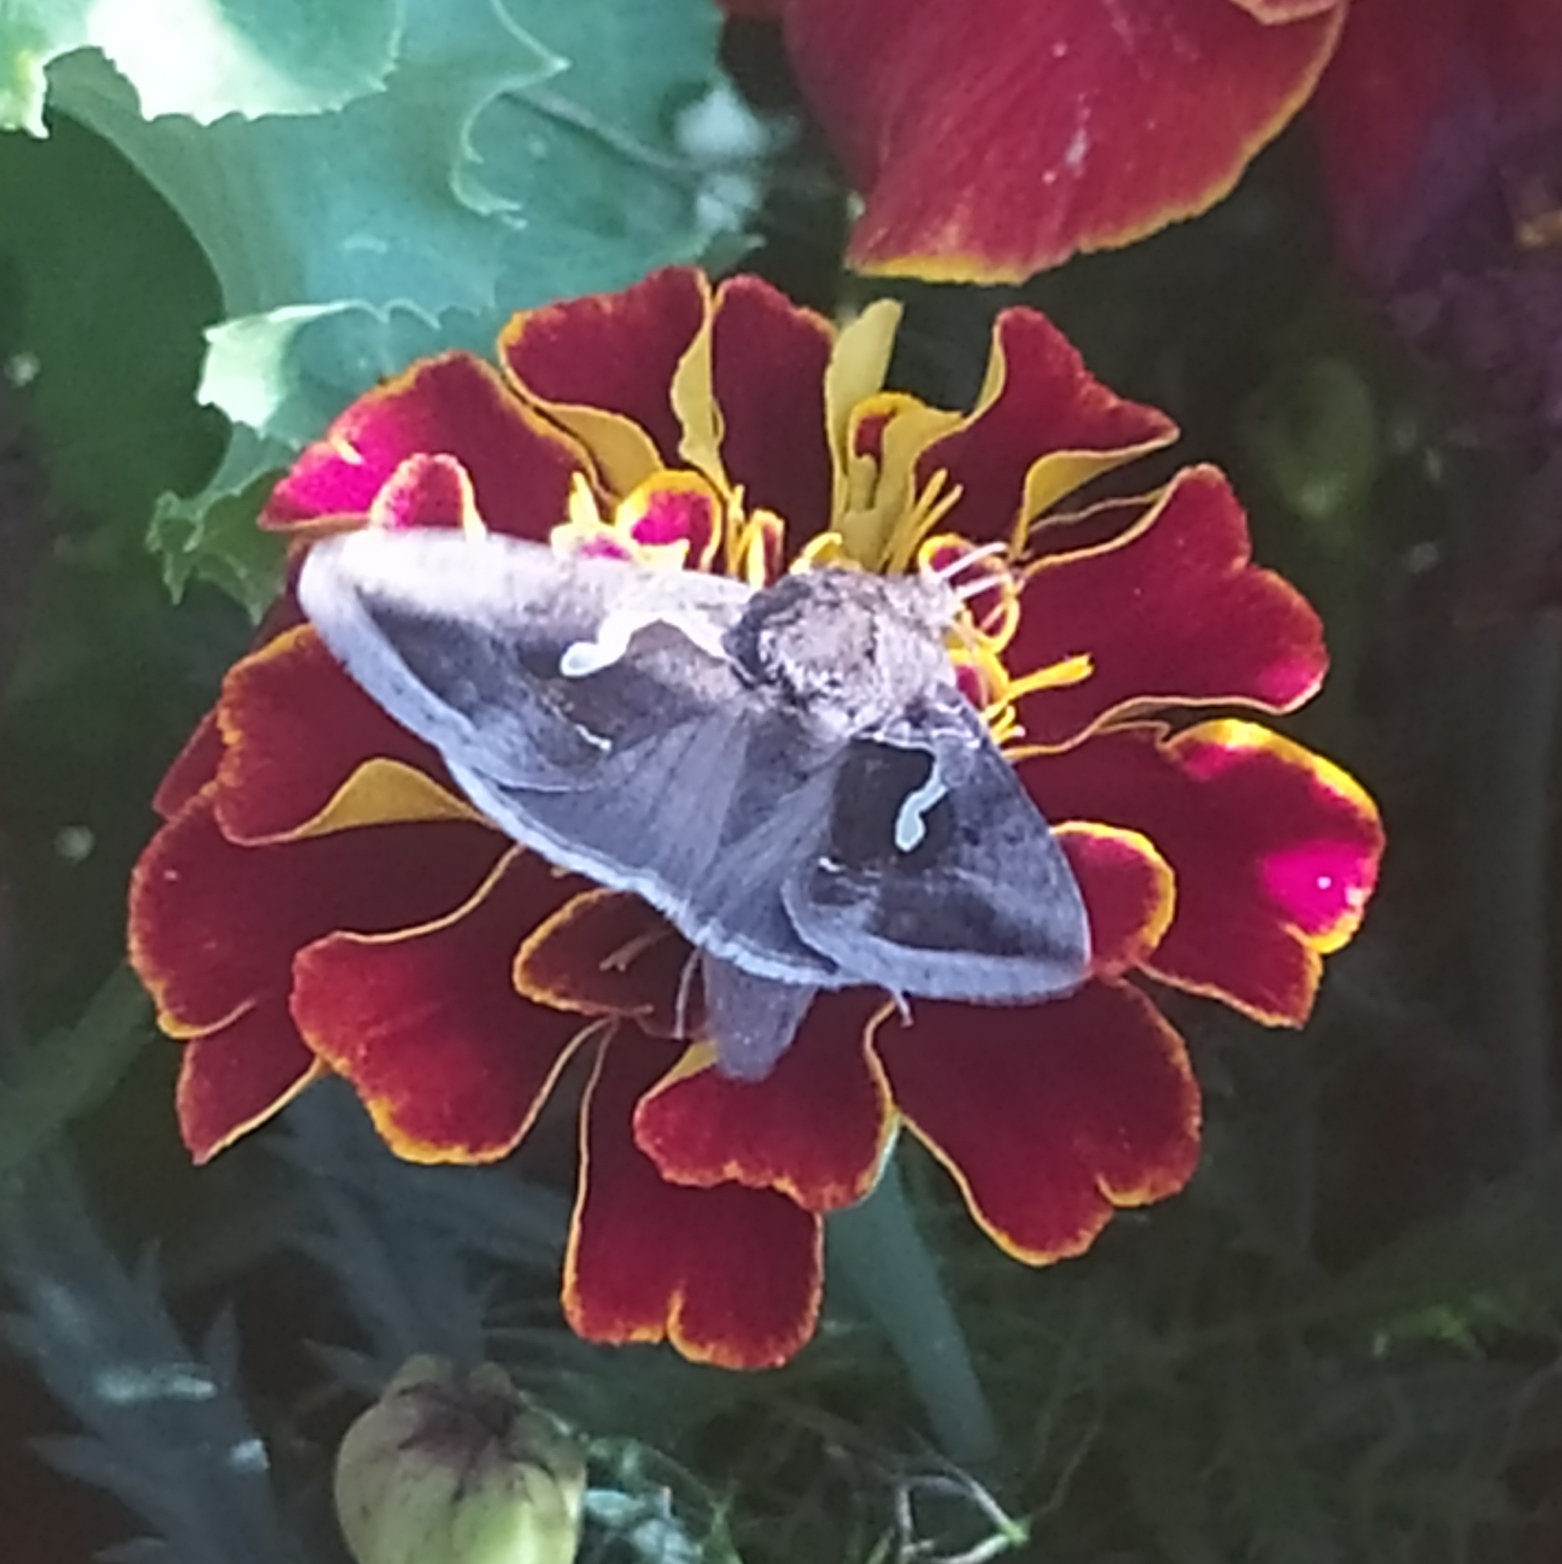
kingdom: Animalia
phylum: Arthropoda
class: Insecta
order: Lepidoptera
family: Noctuidae
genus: Macdunnoughia
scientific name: Macdunnoughia confusa
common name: Dewick's plusia
